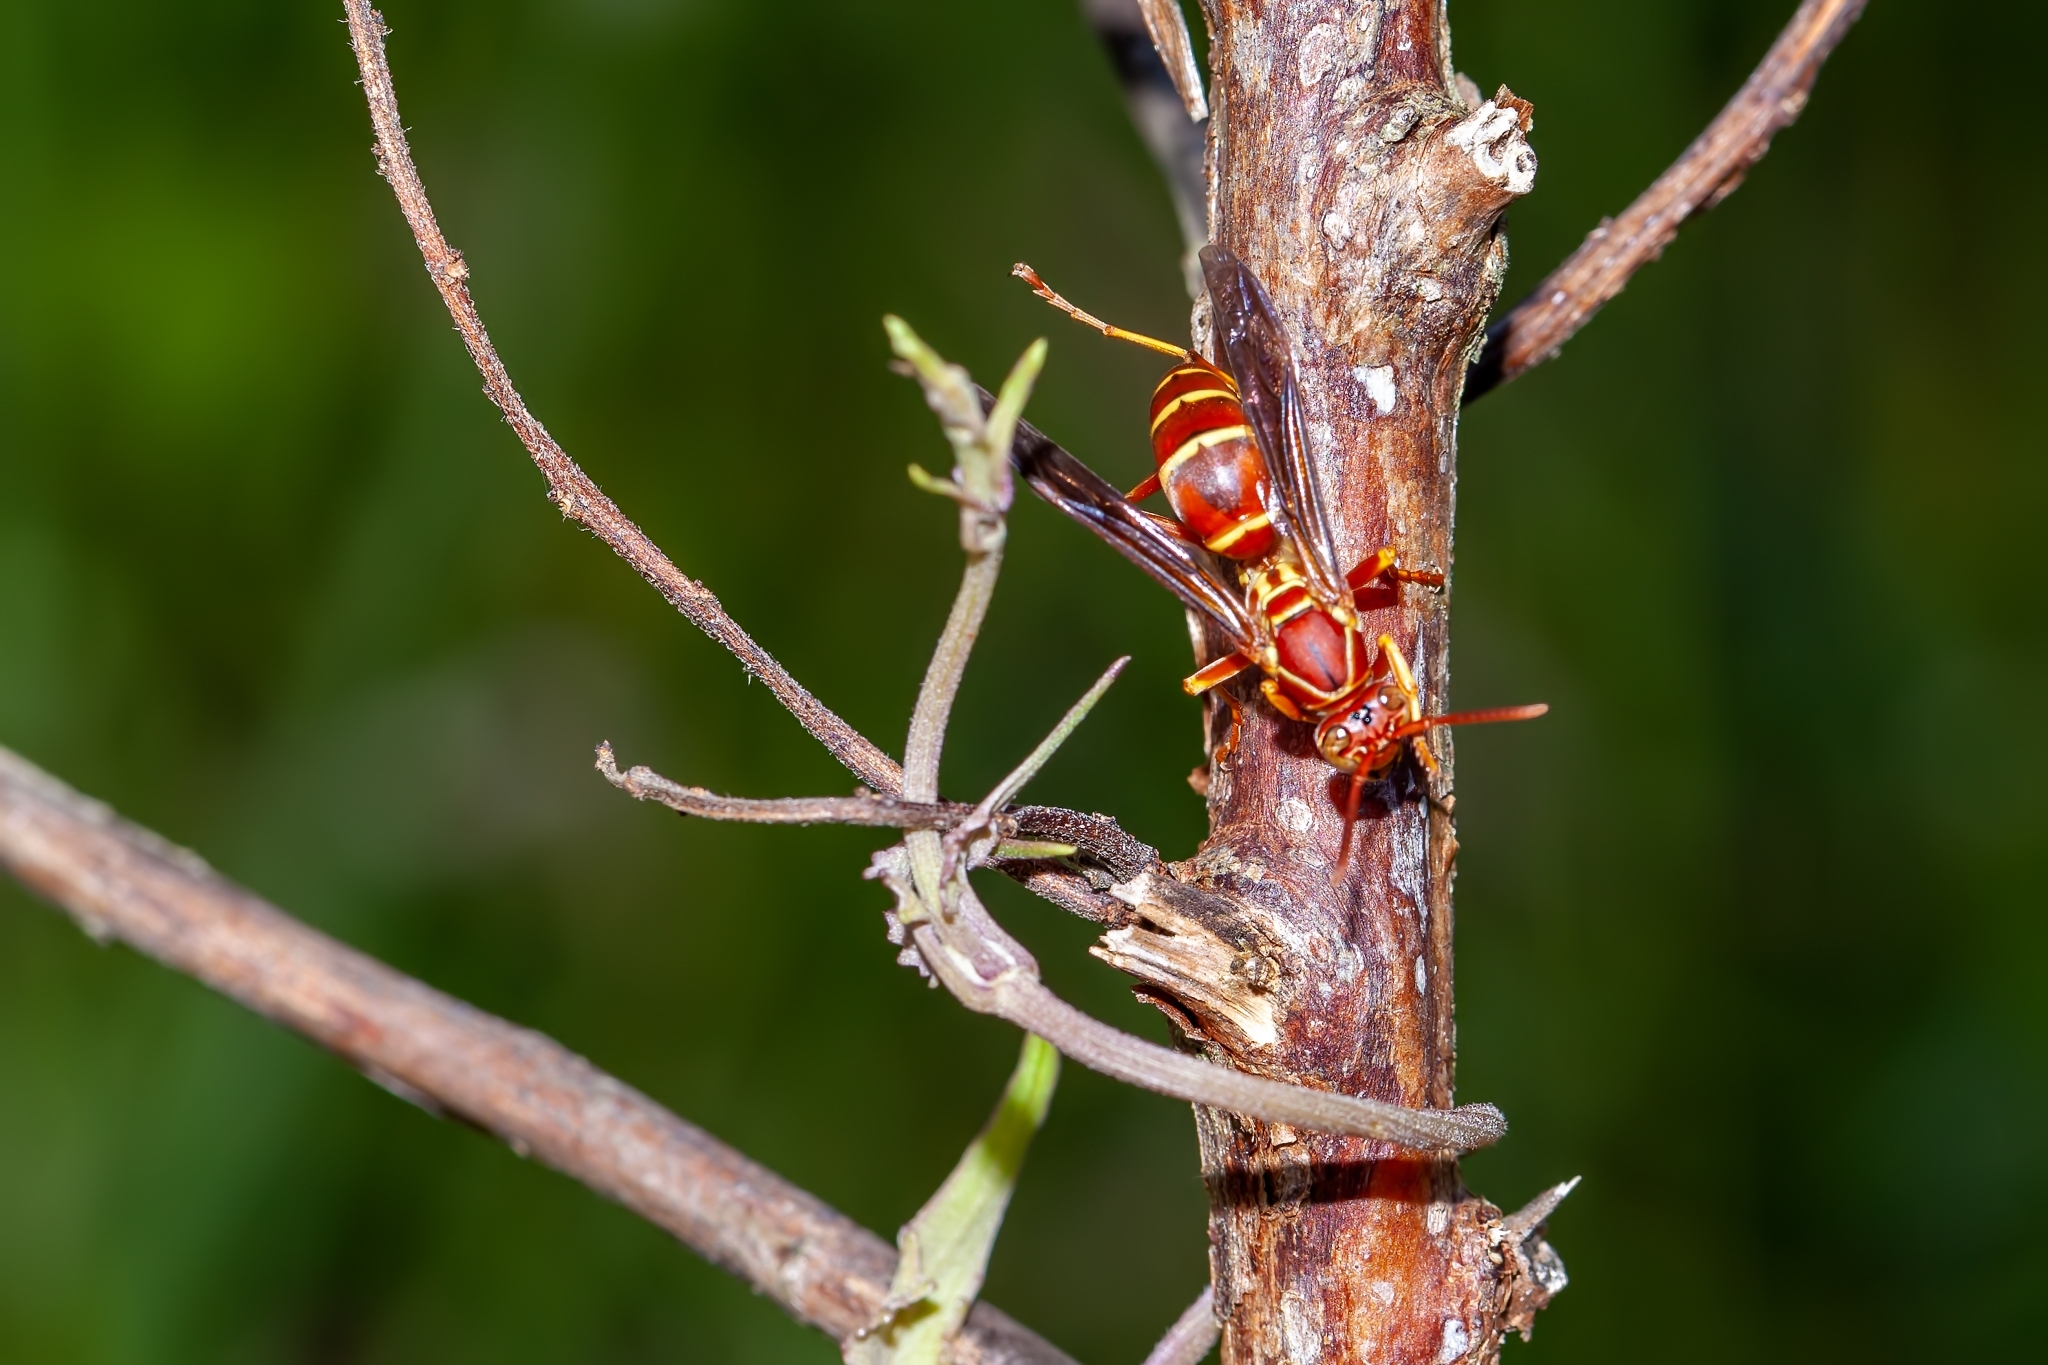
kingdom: Animalia
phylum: Arthropoda
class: Insecta
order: Hymenoptera
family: Eumenidae
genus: Polistes
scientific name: Polistes bellicosus
